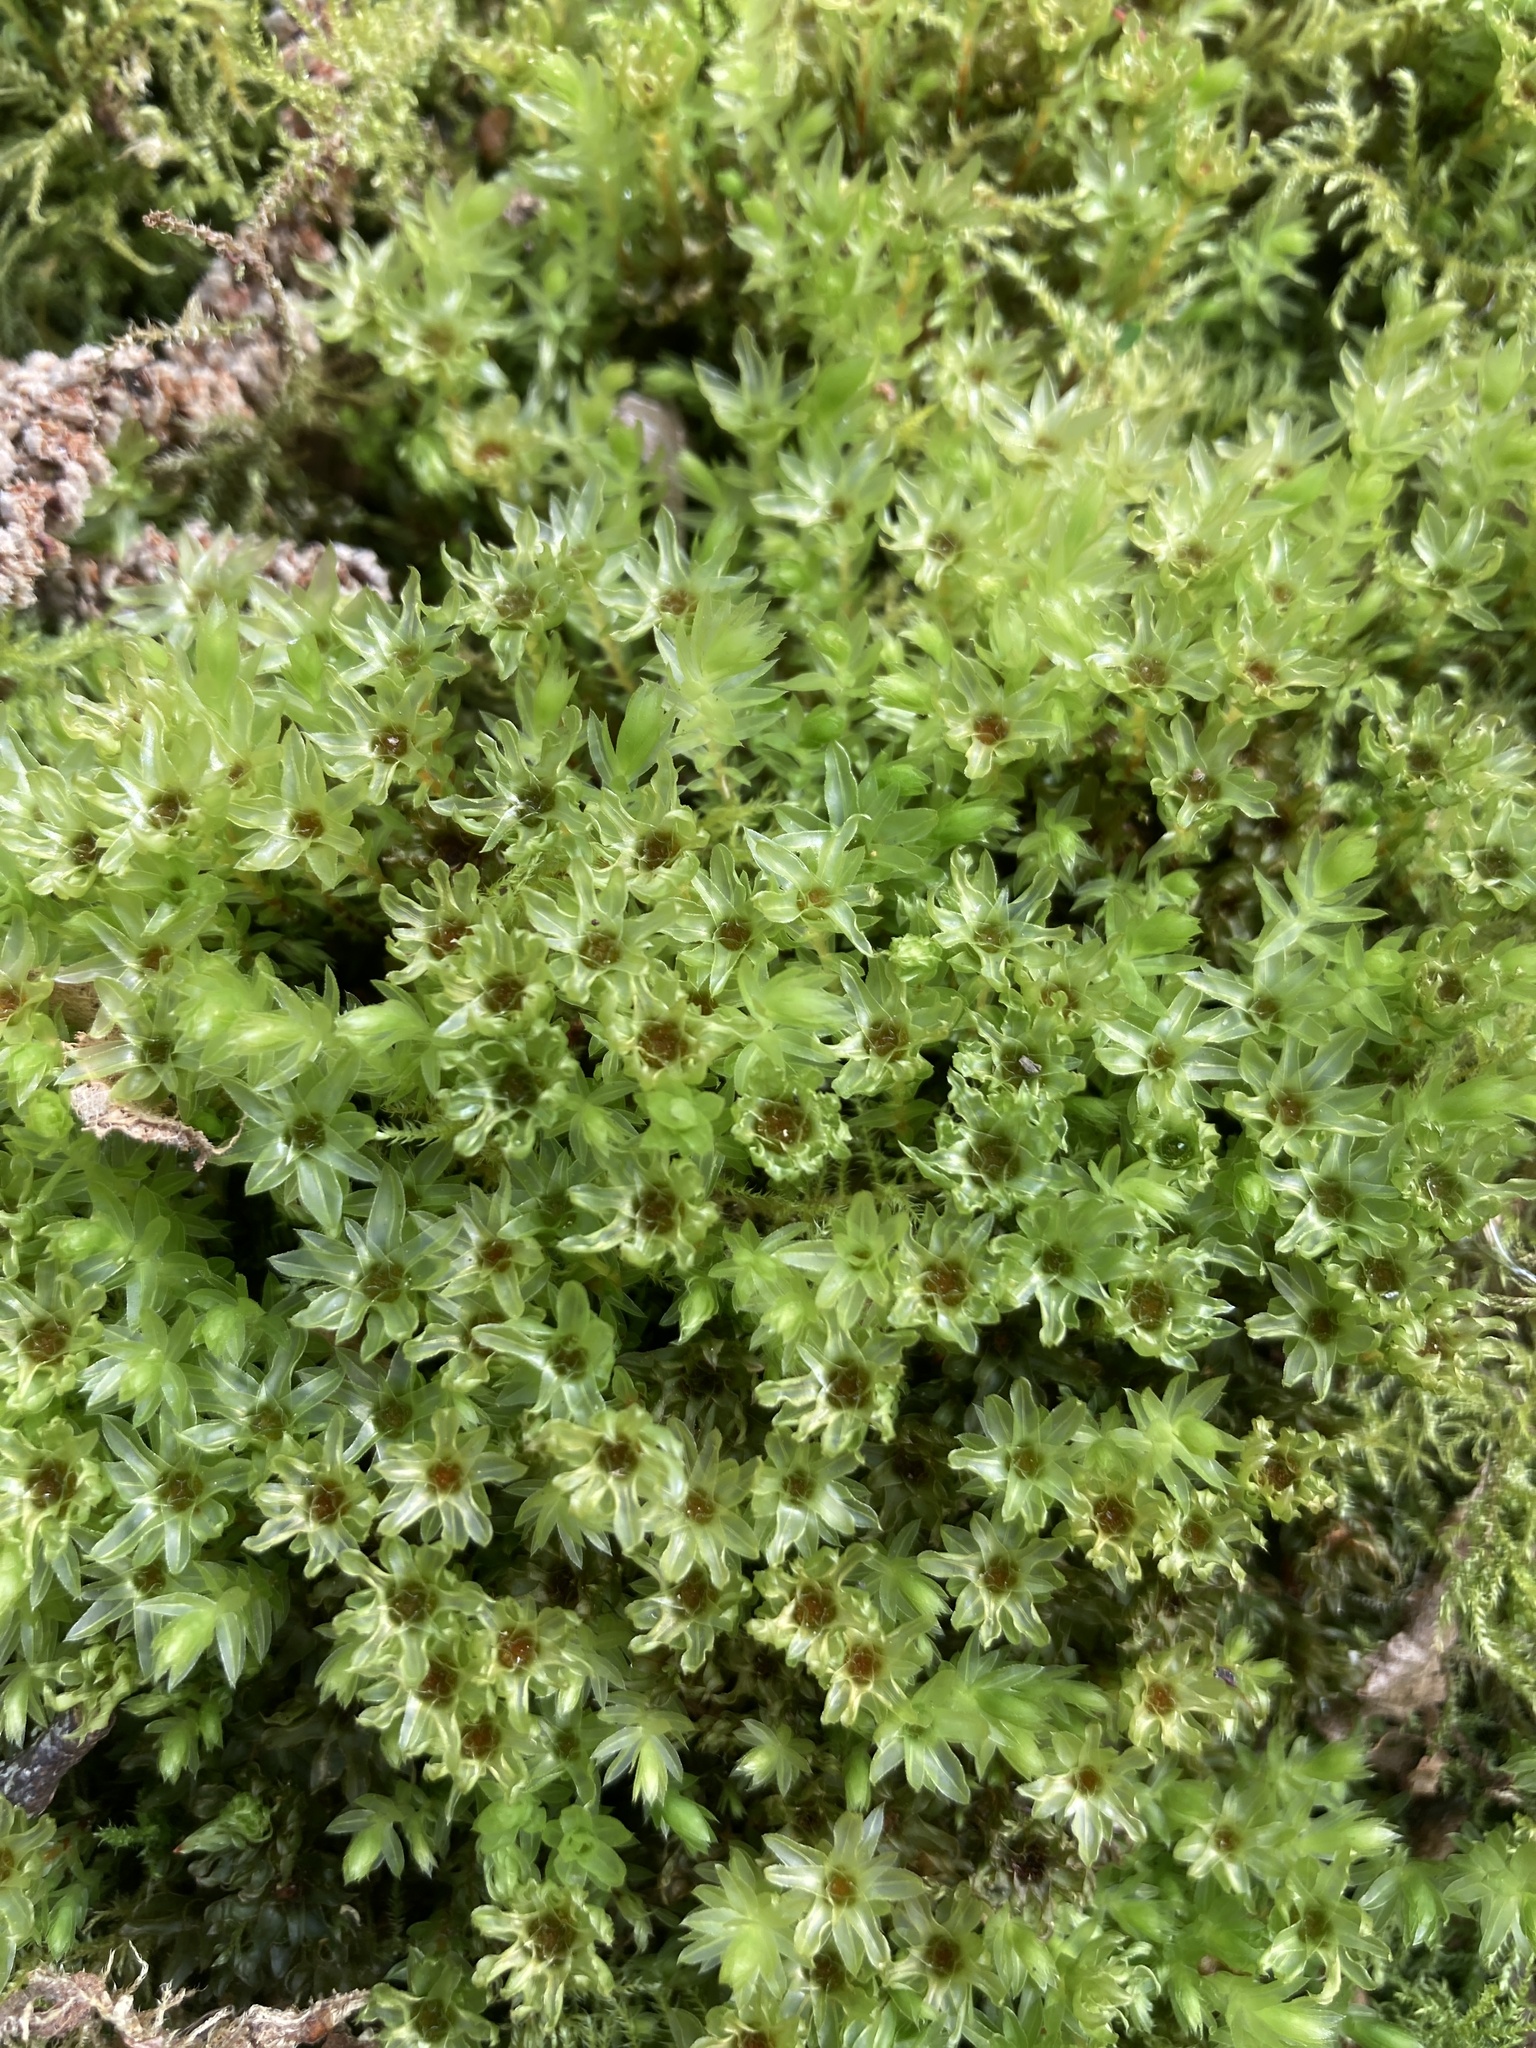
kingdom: Plantae
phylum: Bryophyta
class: Bryopsida
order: Bryales
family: Mniaceae
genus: Mnium
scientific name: Mnium hornum
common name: Swan's-neck leafy moss
